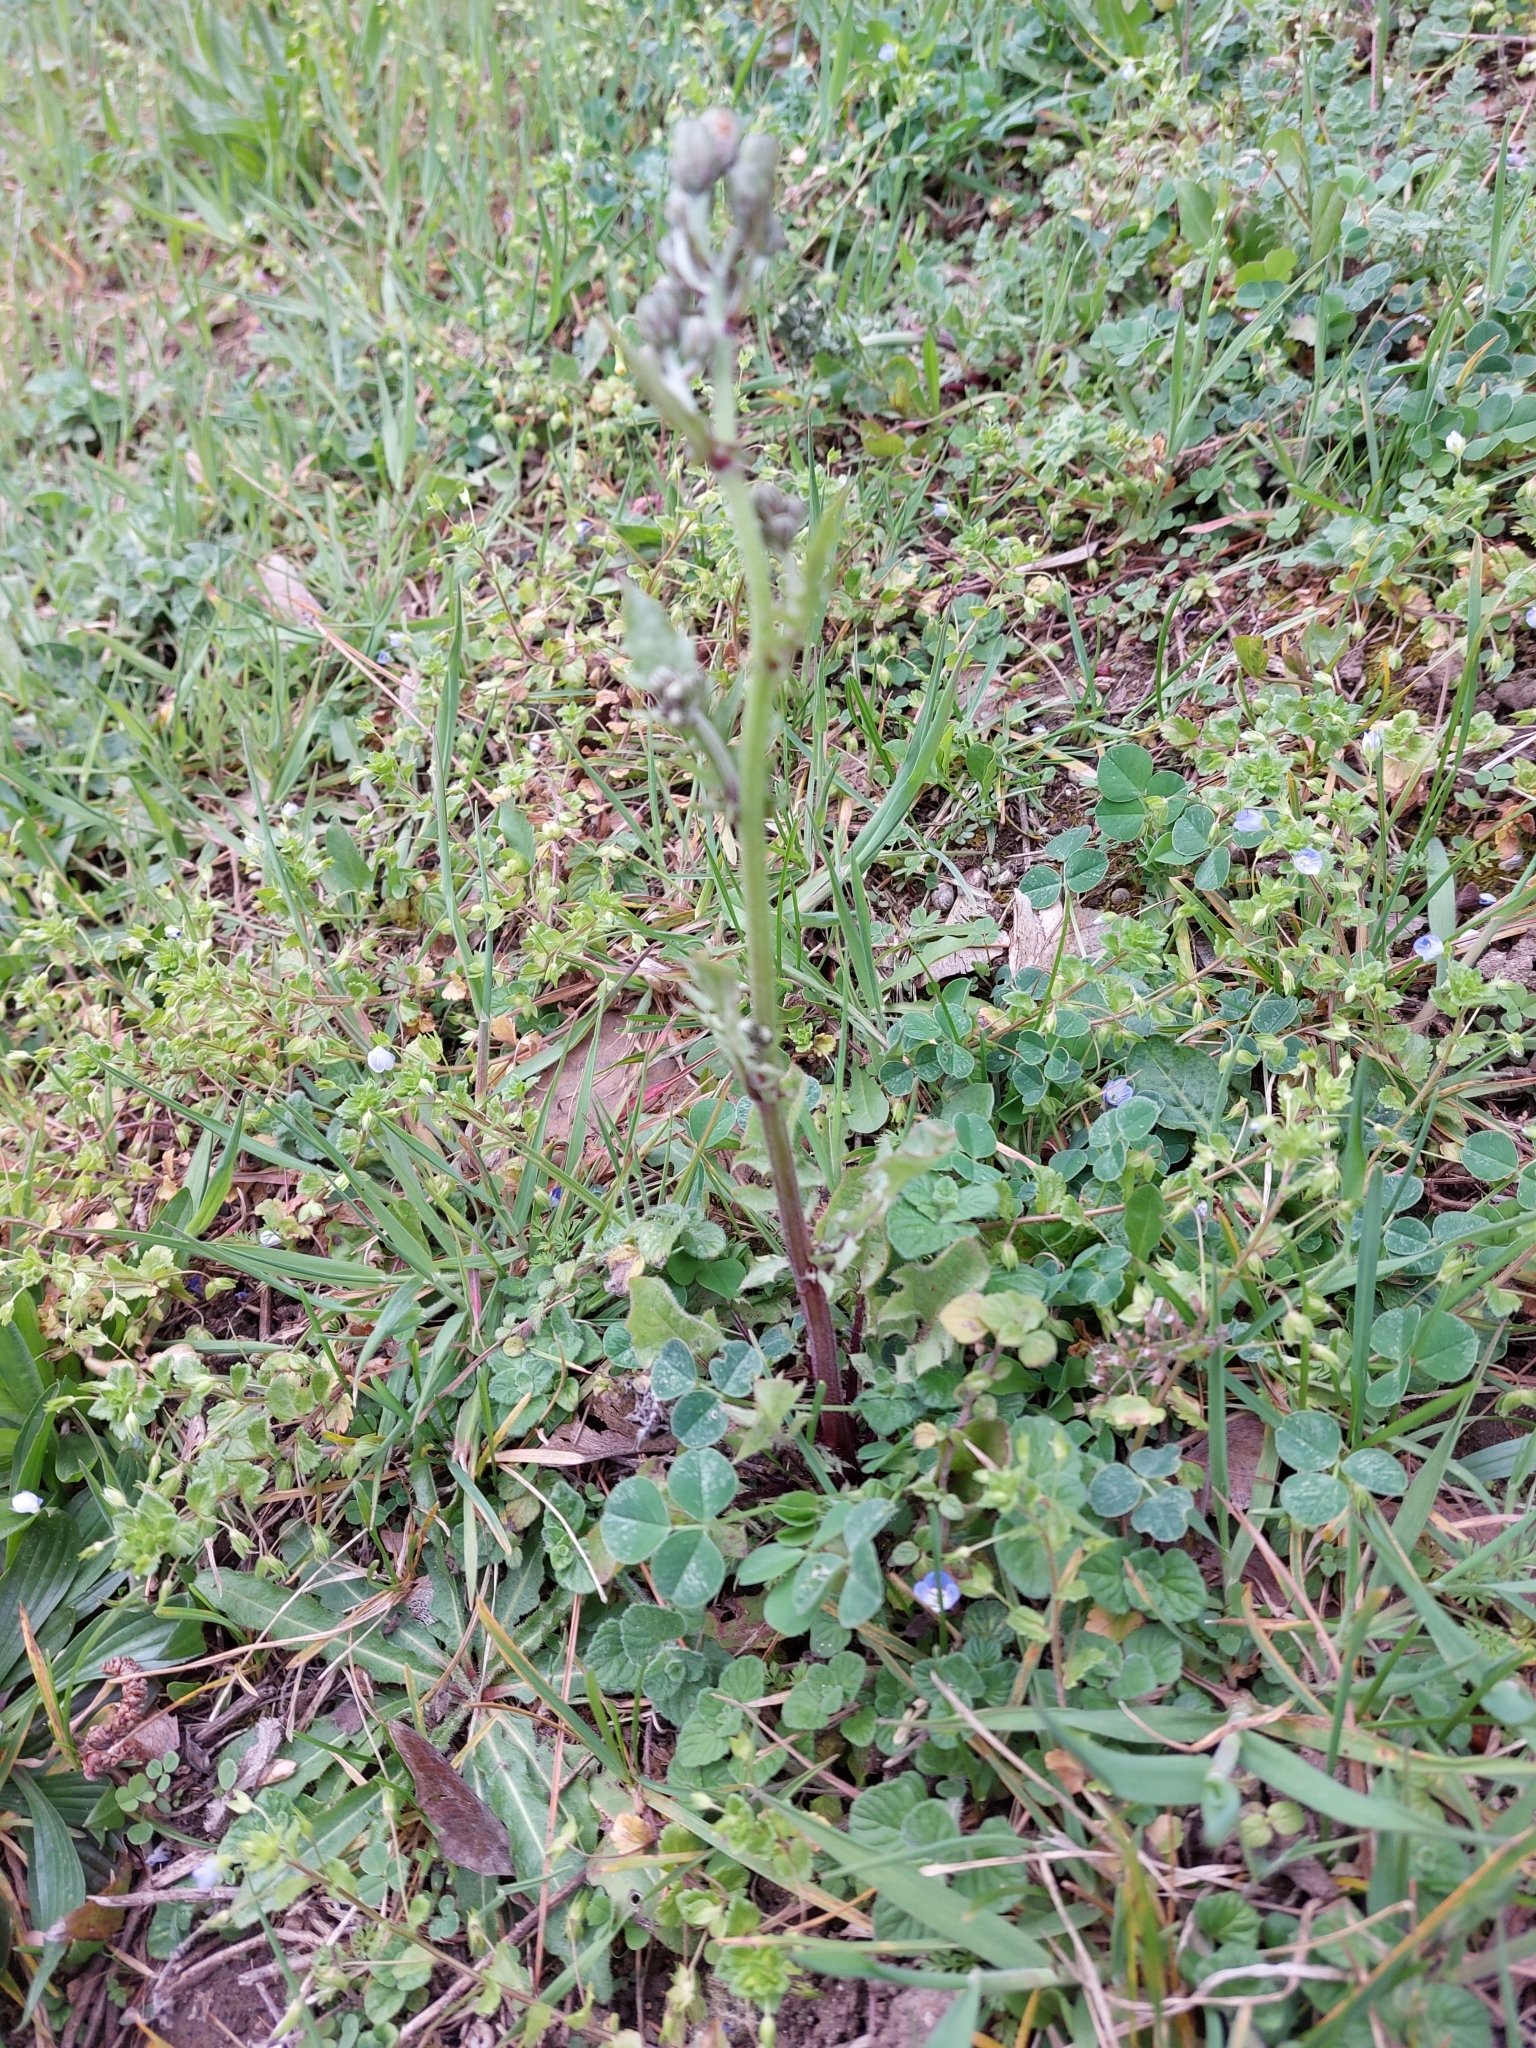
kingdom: Plantae
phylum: Tracheophyta
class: Magnoliopsida
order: Asterales
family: Asteraceae
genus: Crepis
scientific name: Crepis vesicaria
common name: Beaked hawksbeard
